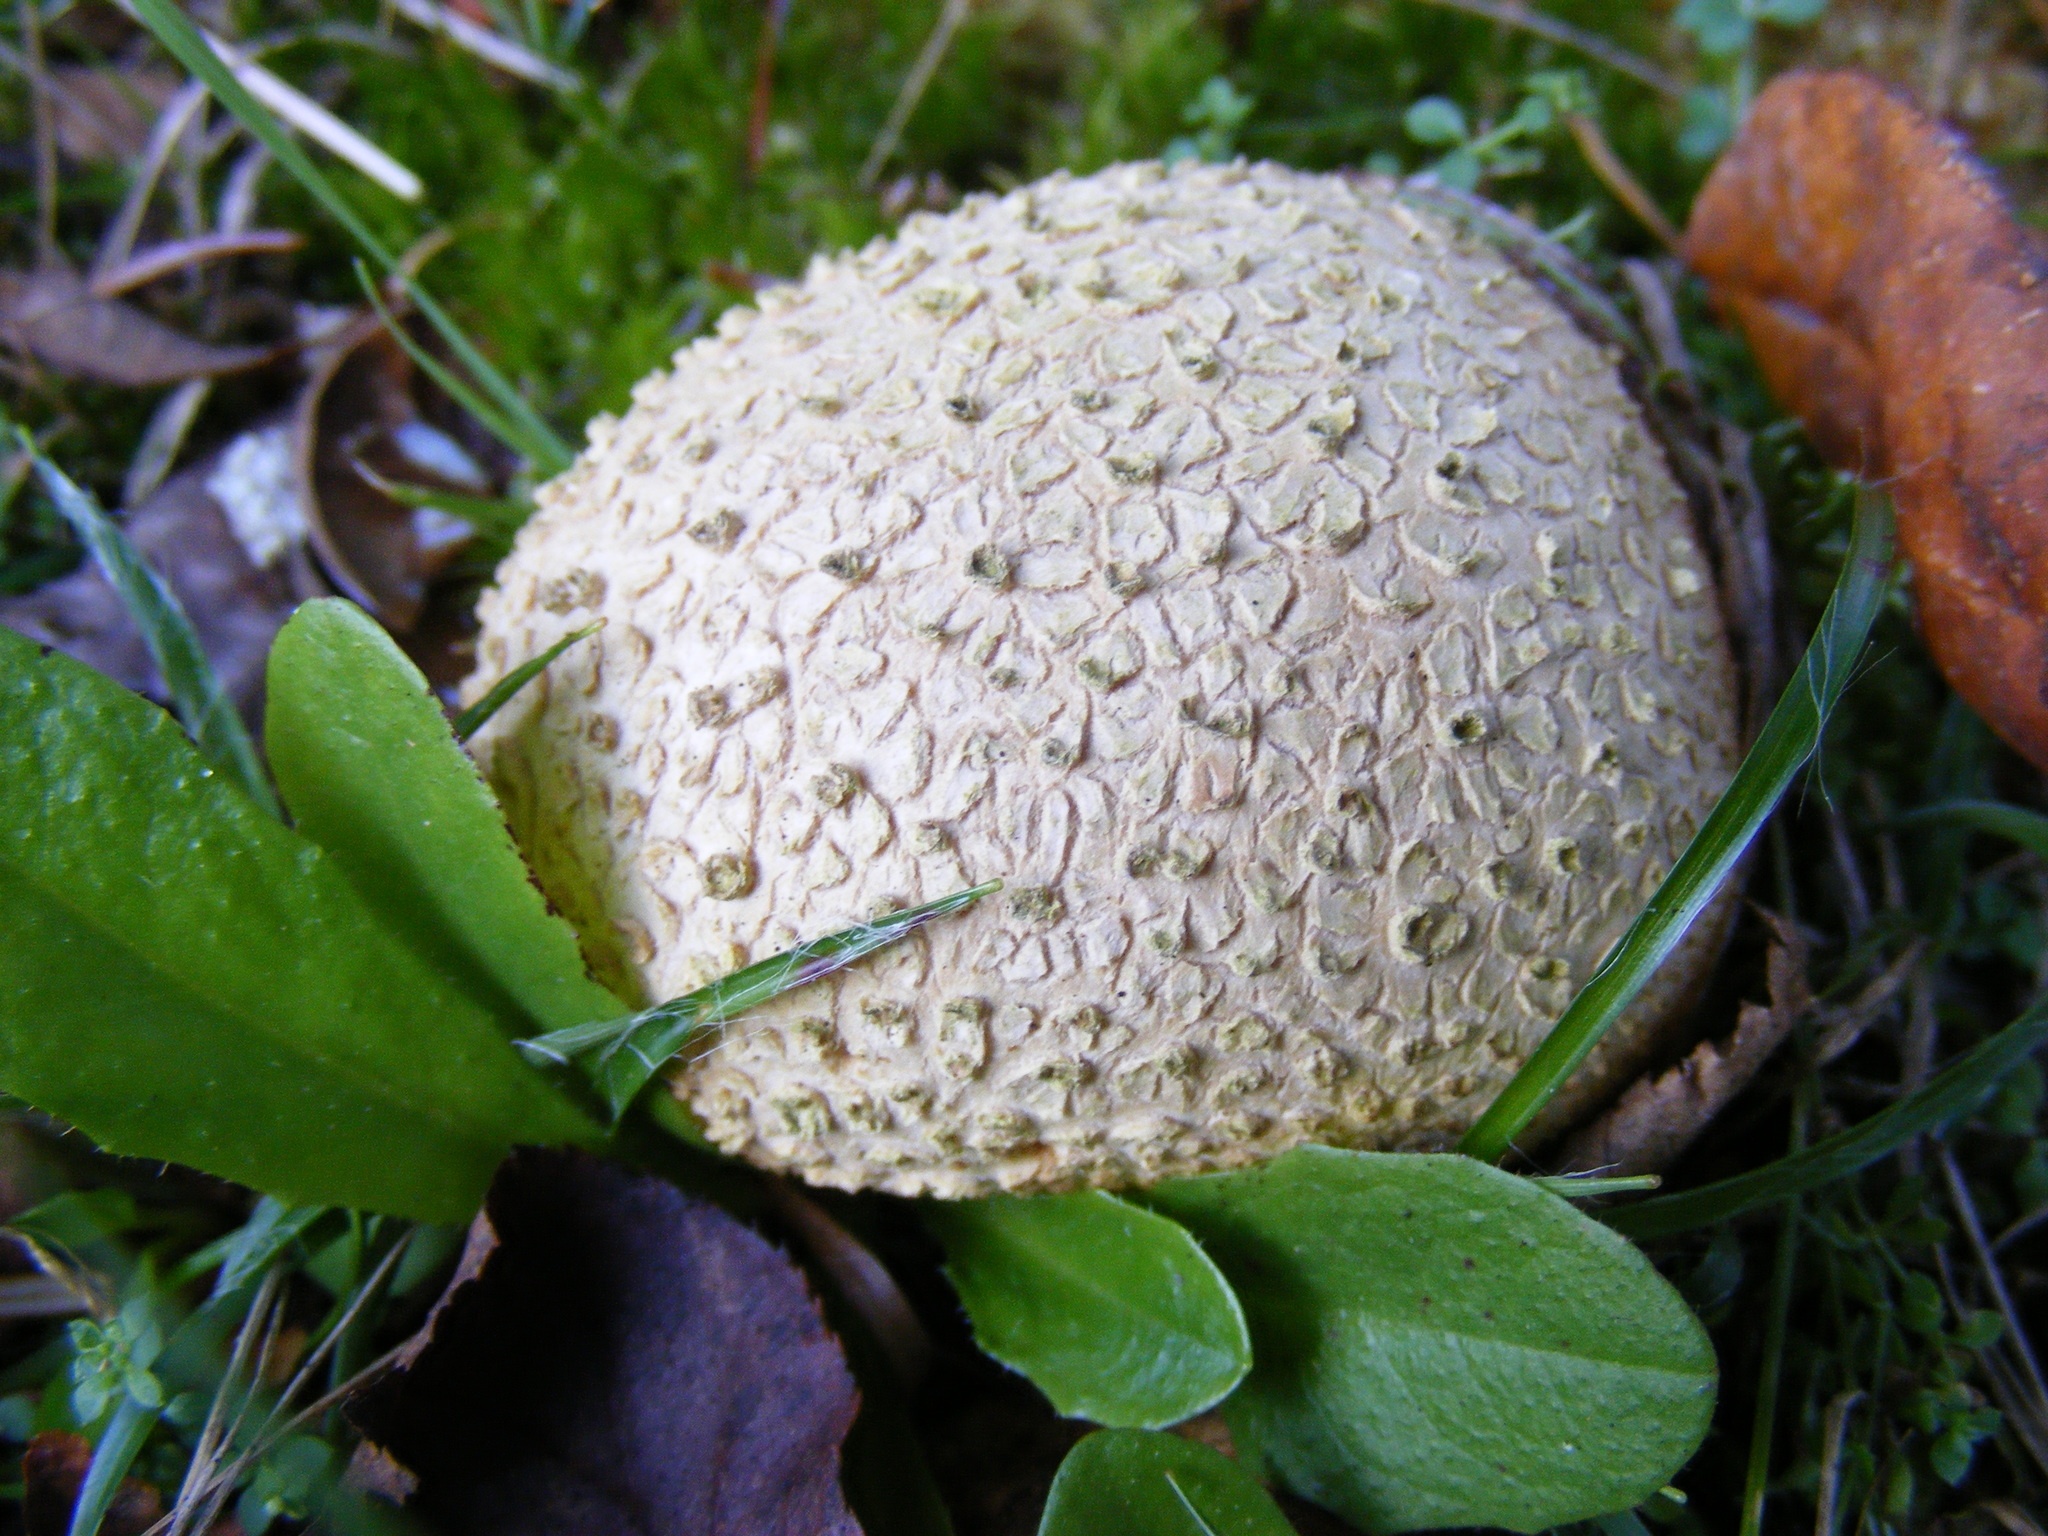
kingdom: Fungi
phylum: Basidiomycota
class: Agaricomycetes
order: Boletales
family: Sclerodermataceae
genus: Scleroderma
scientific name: Scleroderma citrinum
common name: Common earthball
